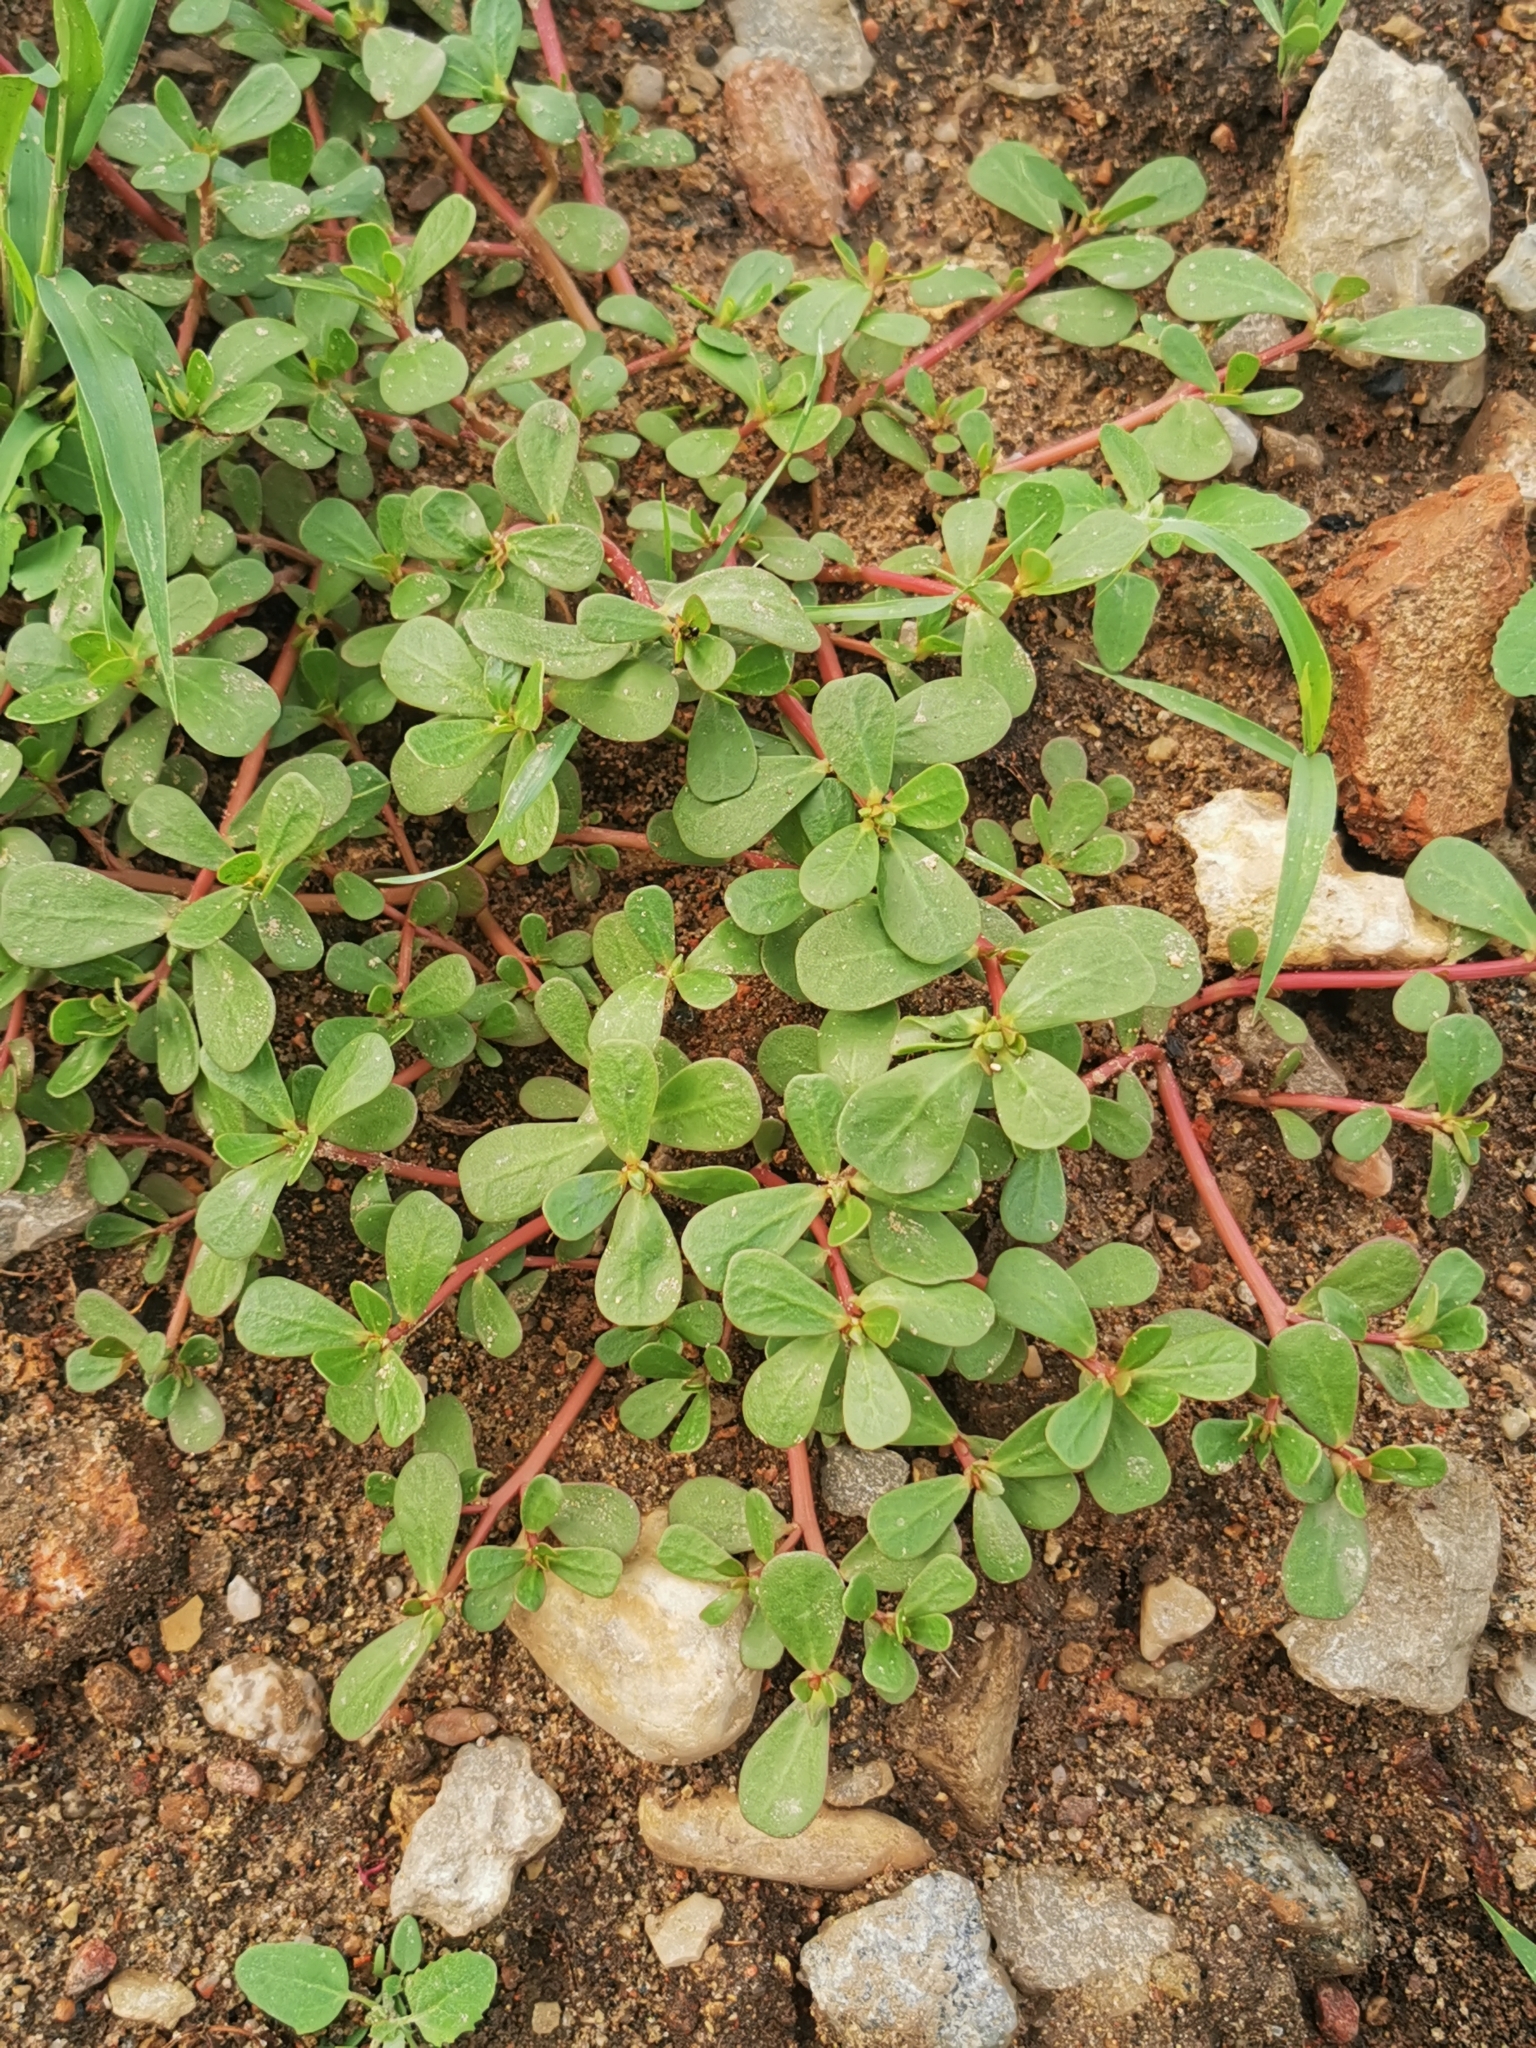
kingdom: Plantae
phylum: Tracheophyta
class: Magnoliopsida
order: Caryophyllales
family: Portulacaceae
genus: Portulaca
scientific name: Portulaca oleracea
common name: Common purslane
